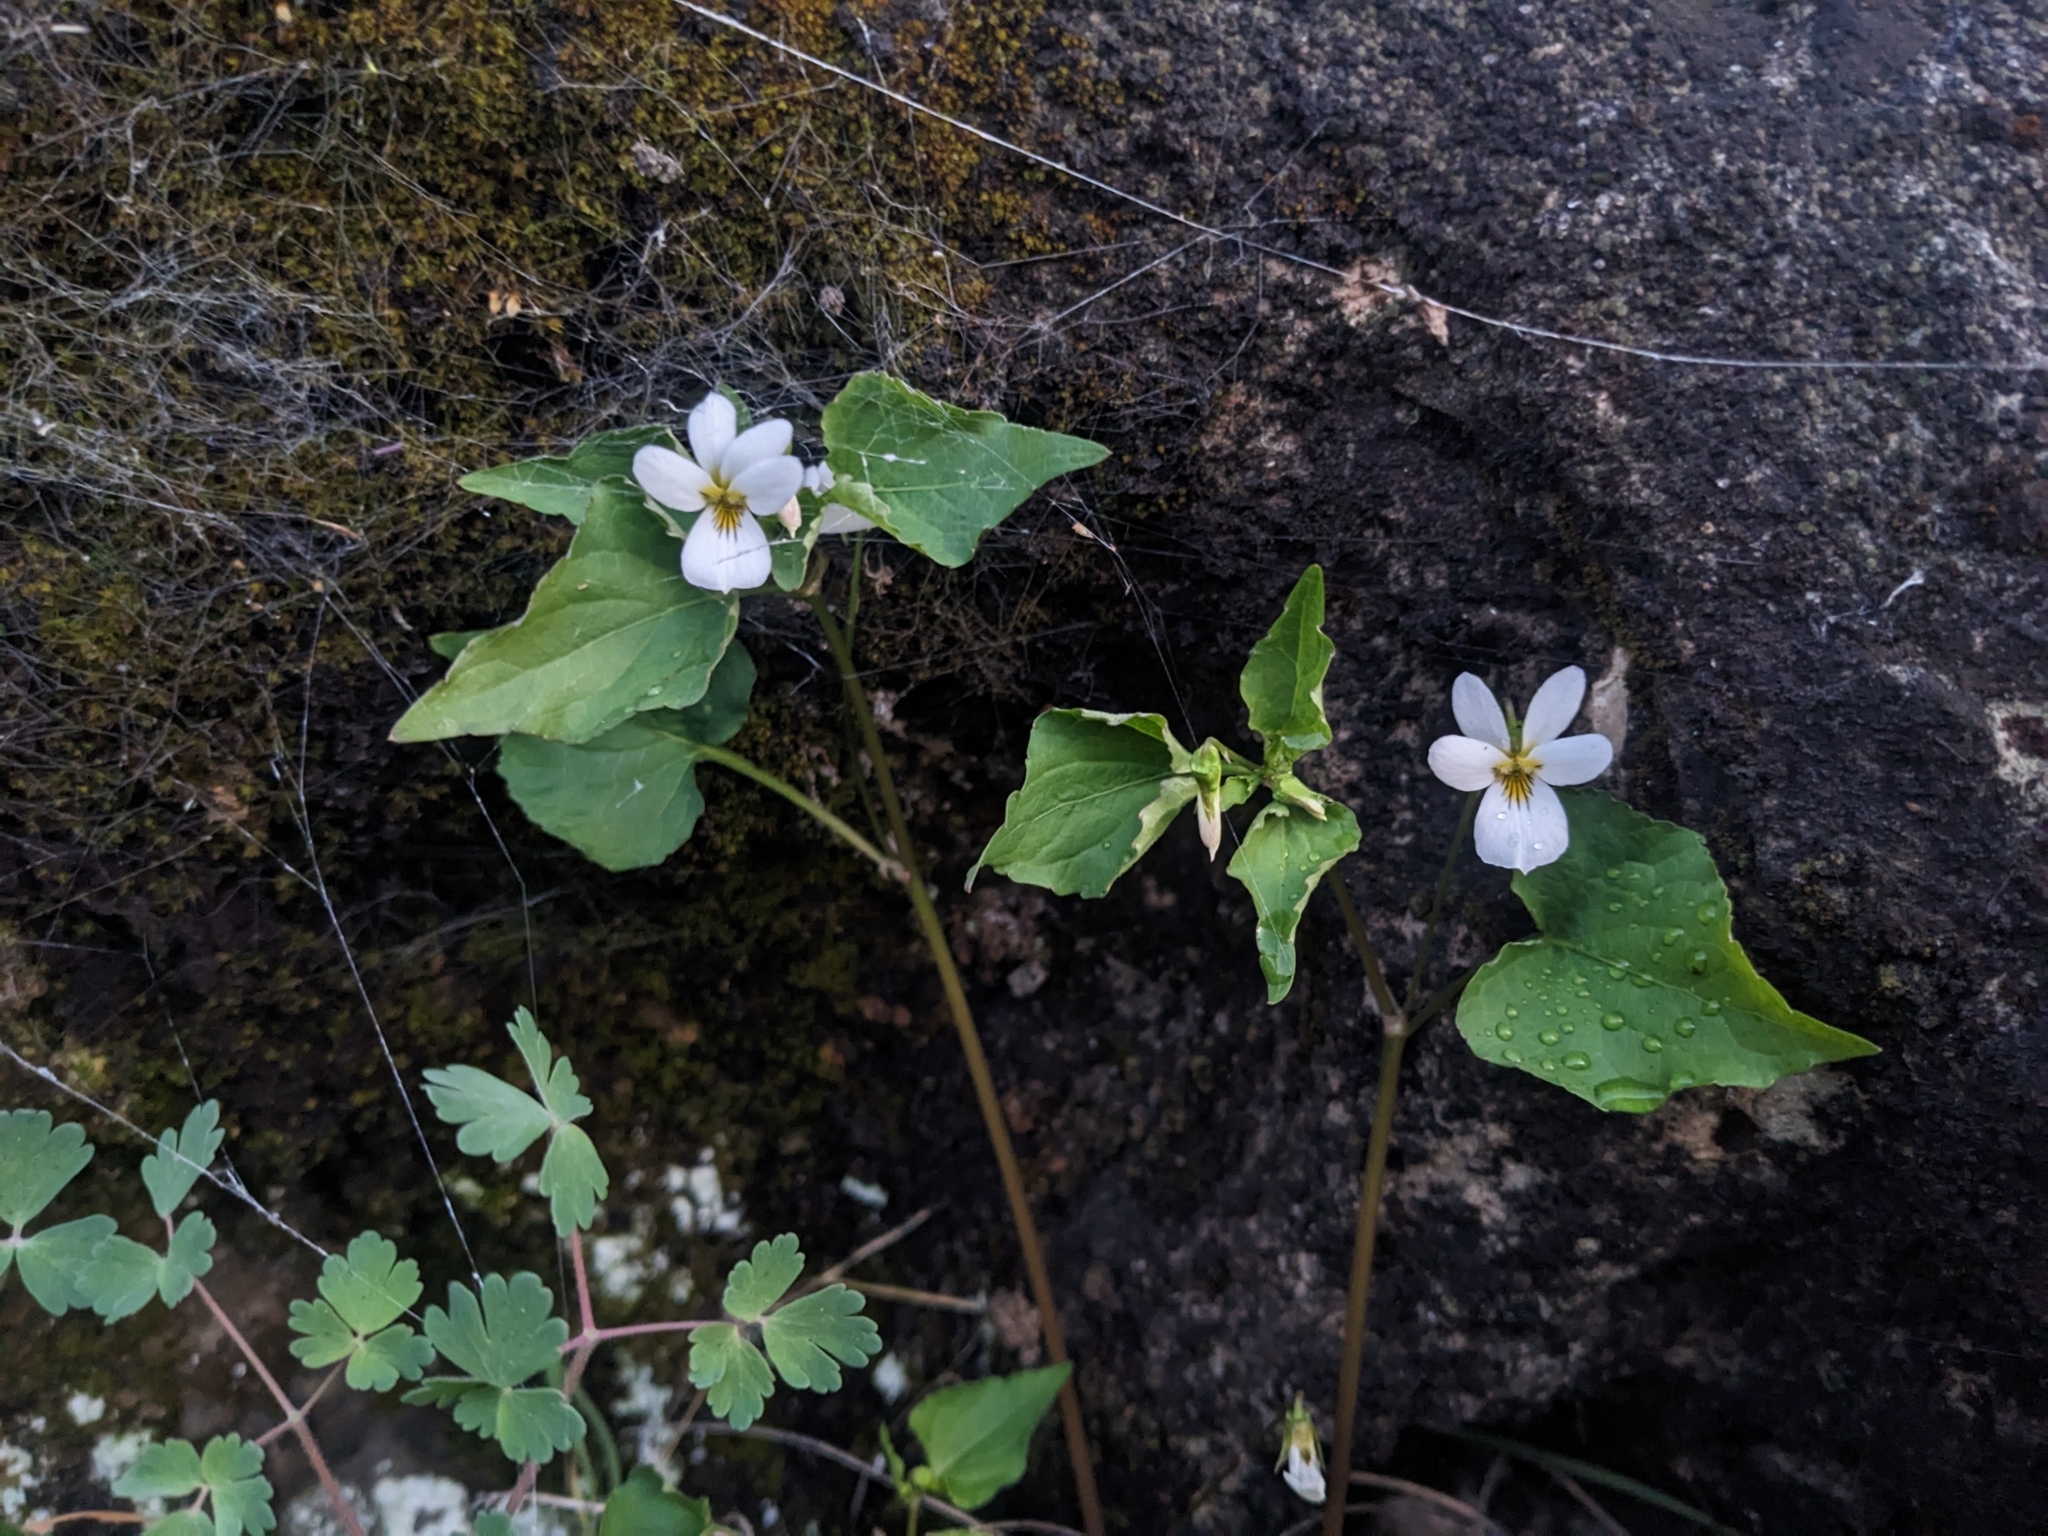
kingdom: Plantae
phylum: Tracheophyta
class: Magnoliopsida
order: Malpighiales
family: Violaceae
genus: Viola
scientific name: Viola canadensis
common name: Canada violet
